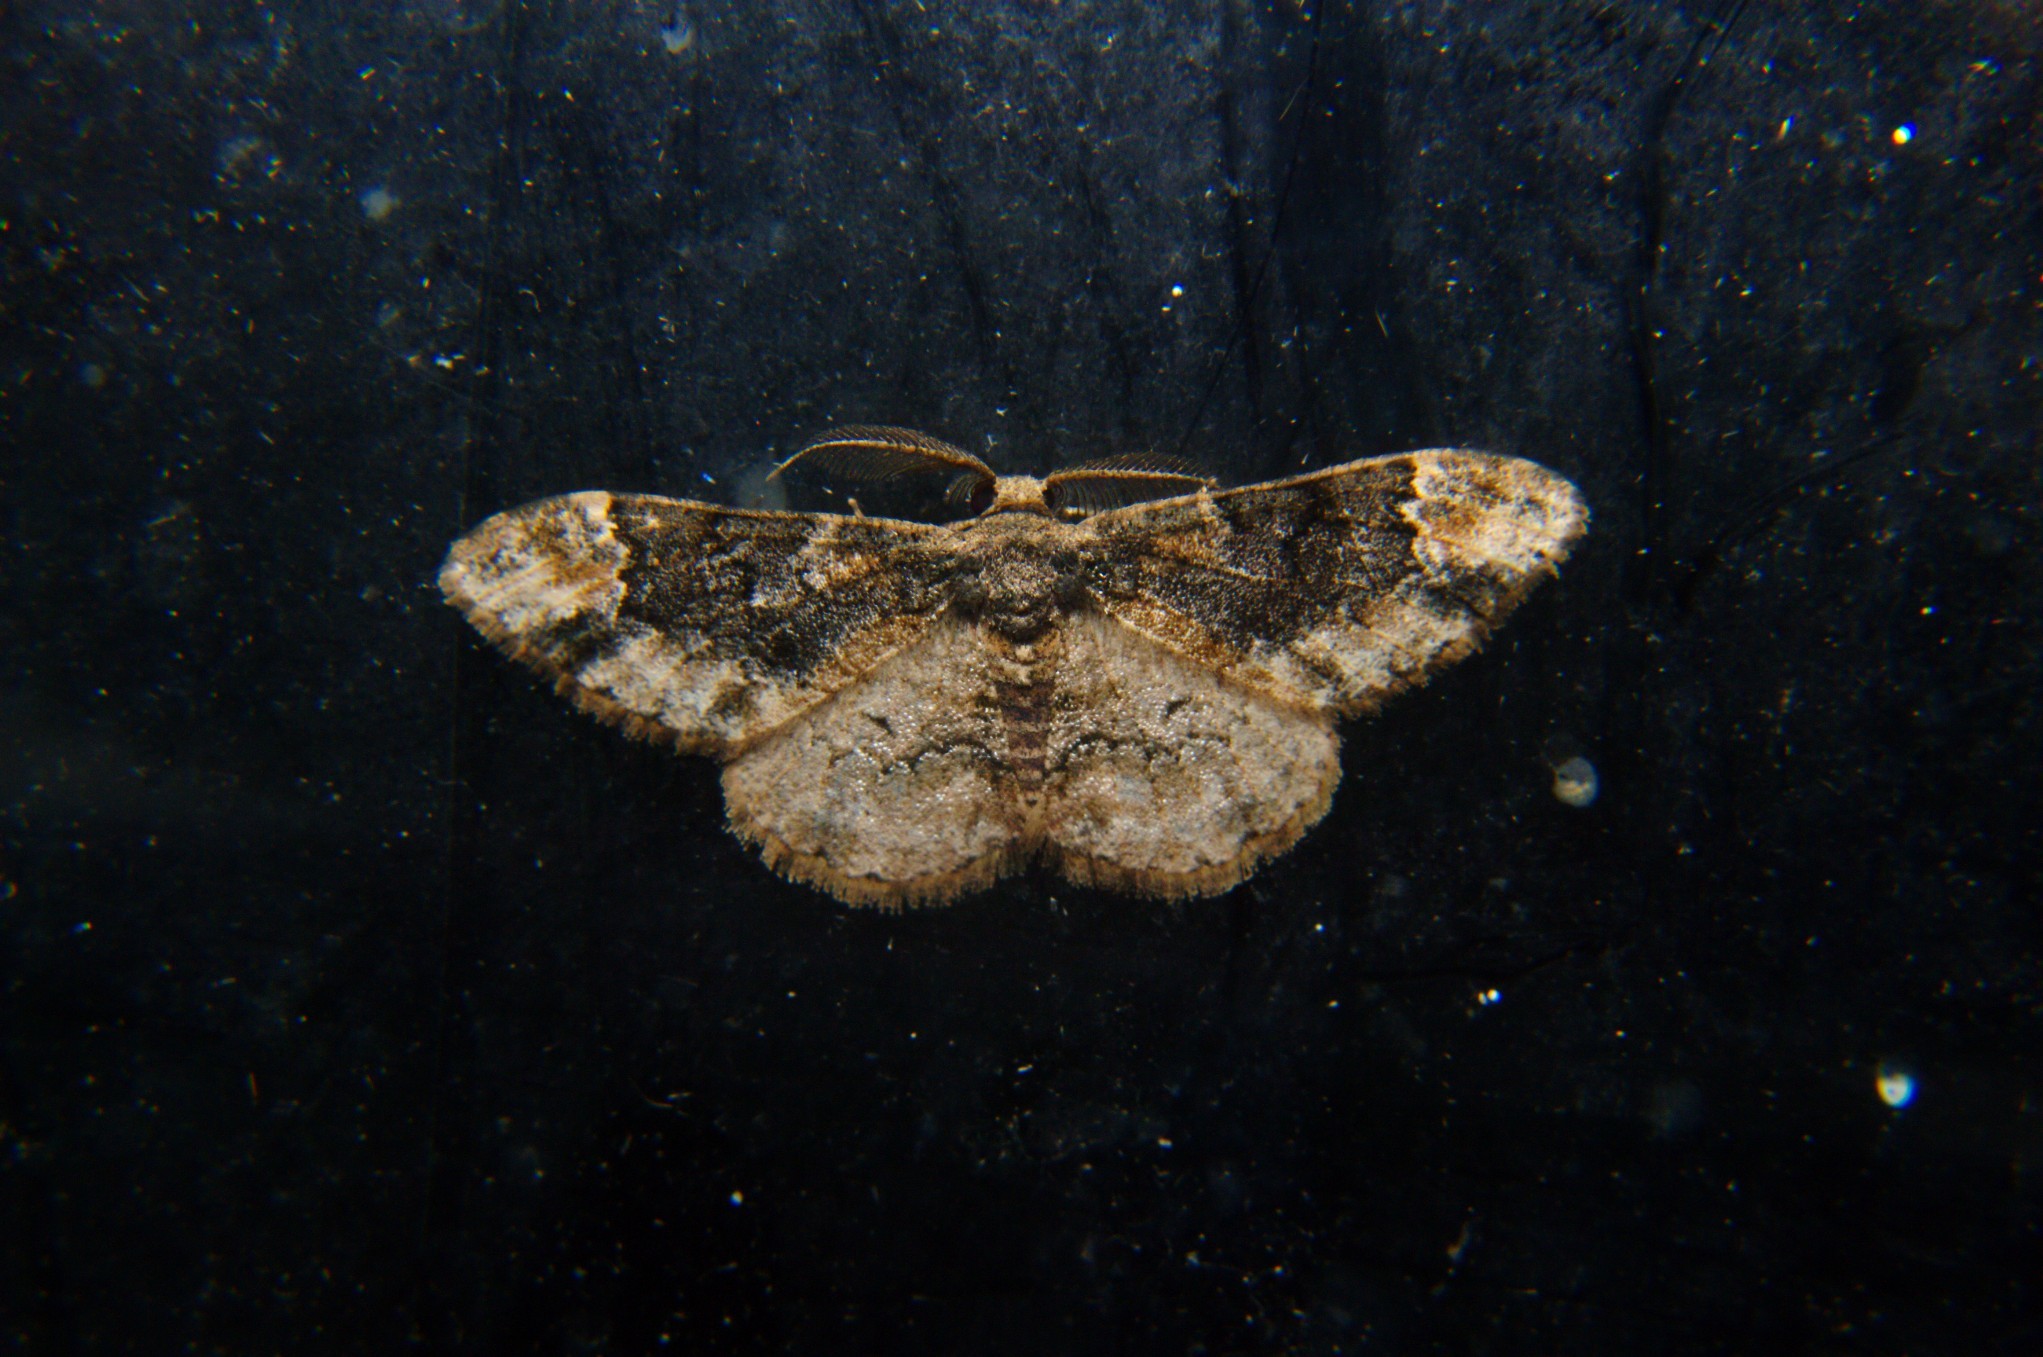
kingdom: Animalia
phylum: Arthropoda
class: Insecta
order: Lepidoptera
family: Geometridae
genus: Parapholodes
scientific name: Parapholodes
